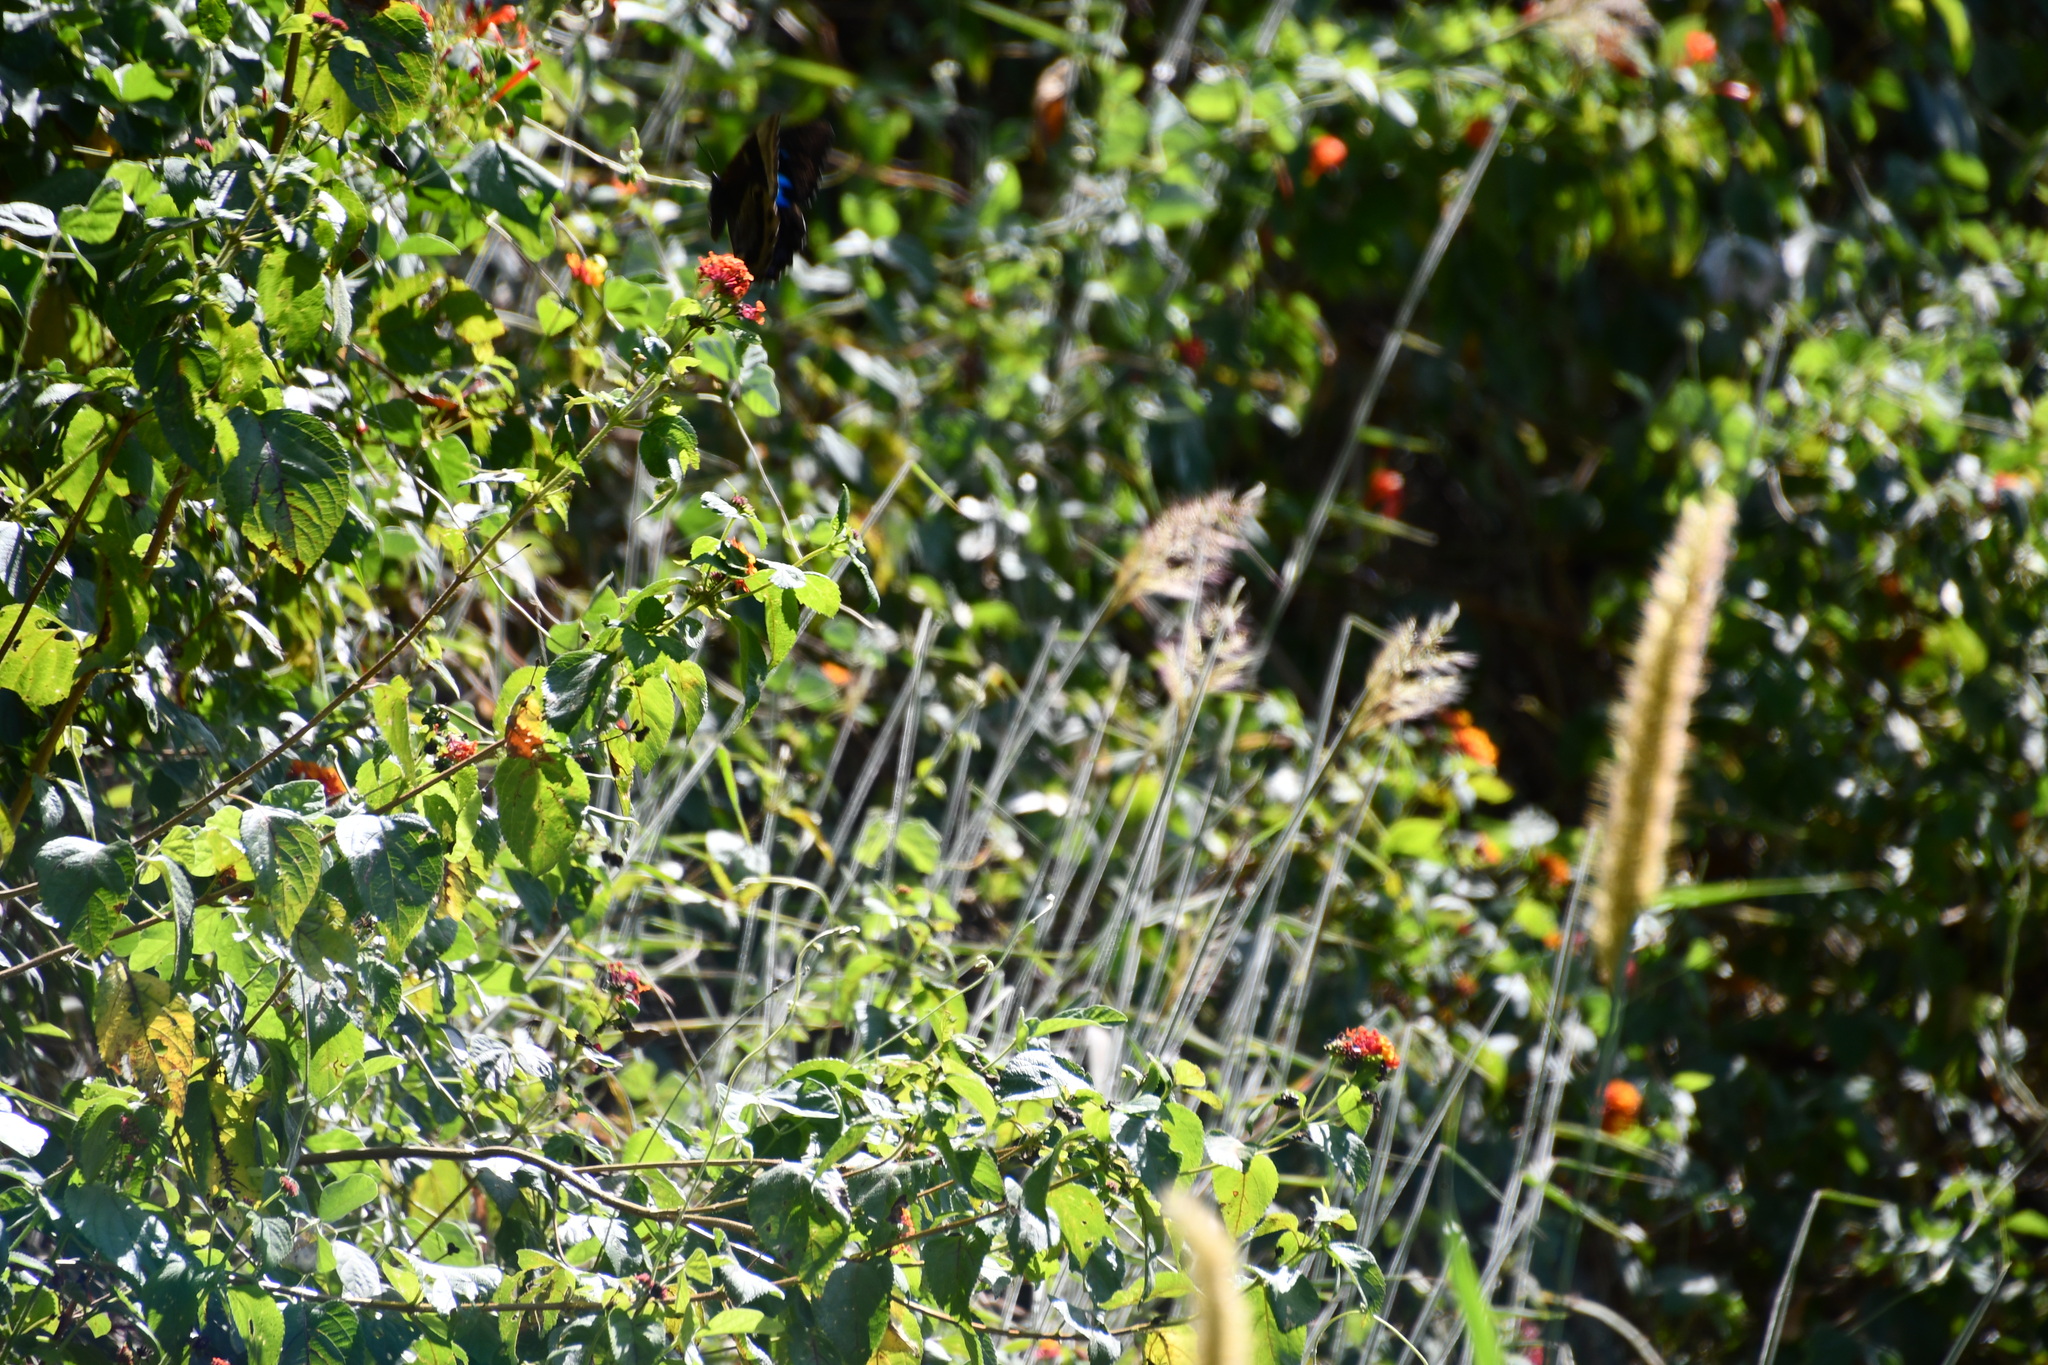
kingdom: Animalia
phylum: Arthropoda
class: Insecta
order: Lepidoptera
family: Papilionidae
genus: Papilio
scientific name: Papilio ulysses
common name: Blue emperor
